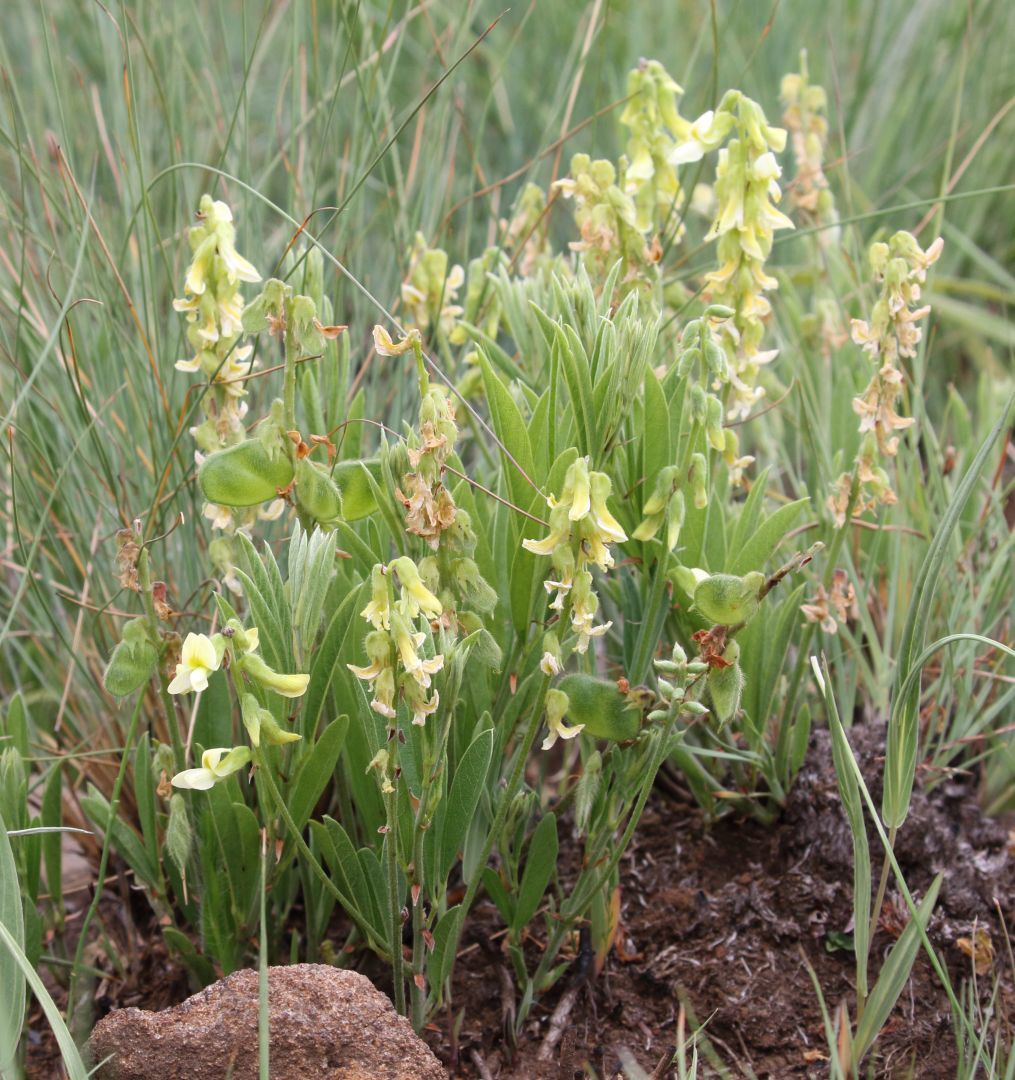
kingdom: Plantae
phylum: Tracheophyta
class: Magnoliopsida
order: Fabales
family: Fabaceae
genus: Eriosema
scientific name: Eriosema kraussianum
